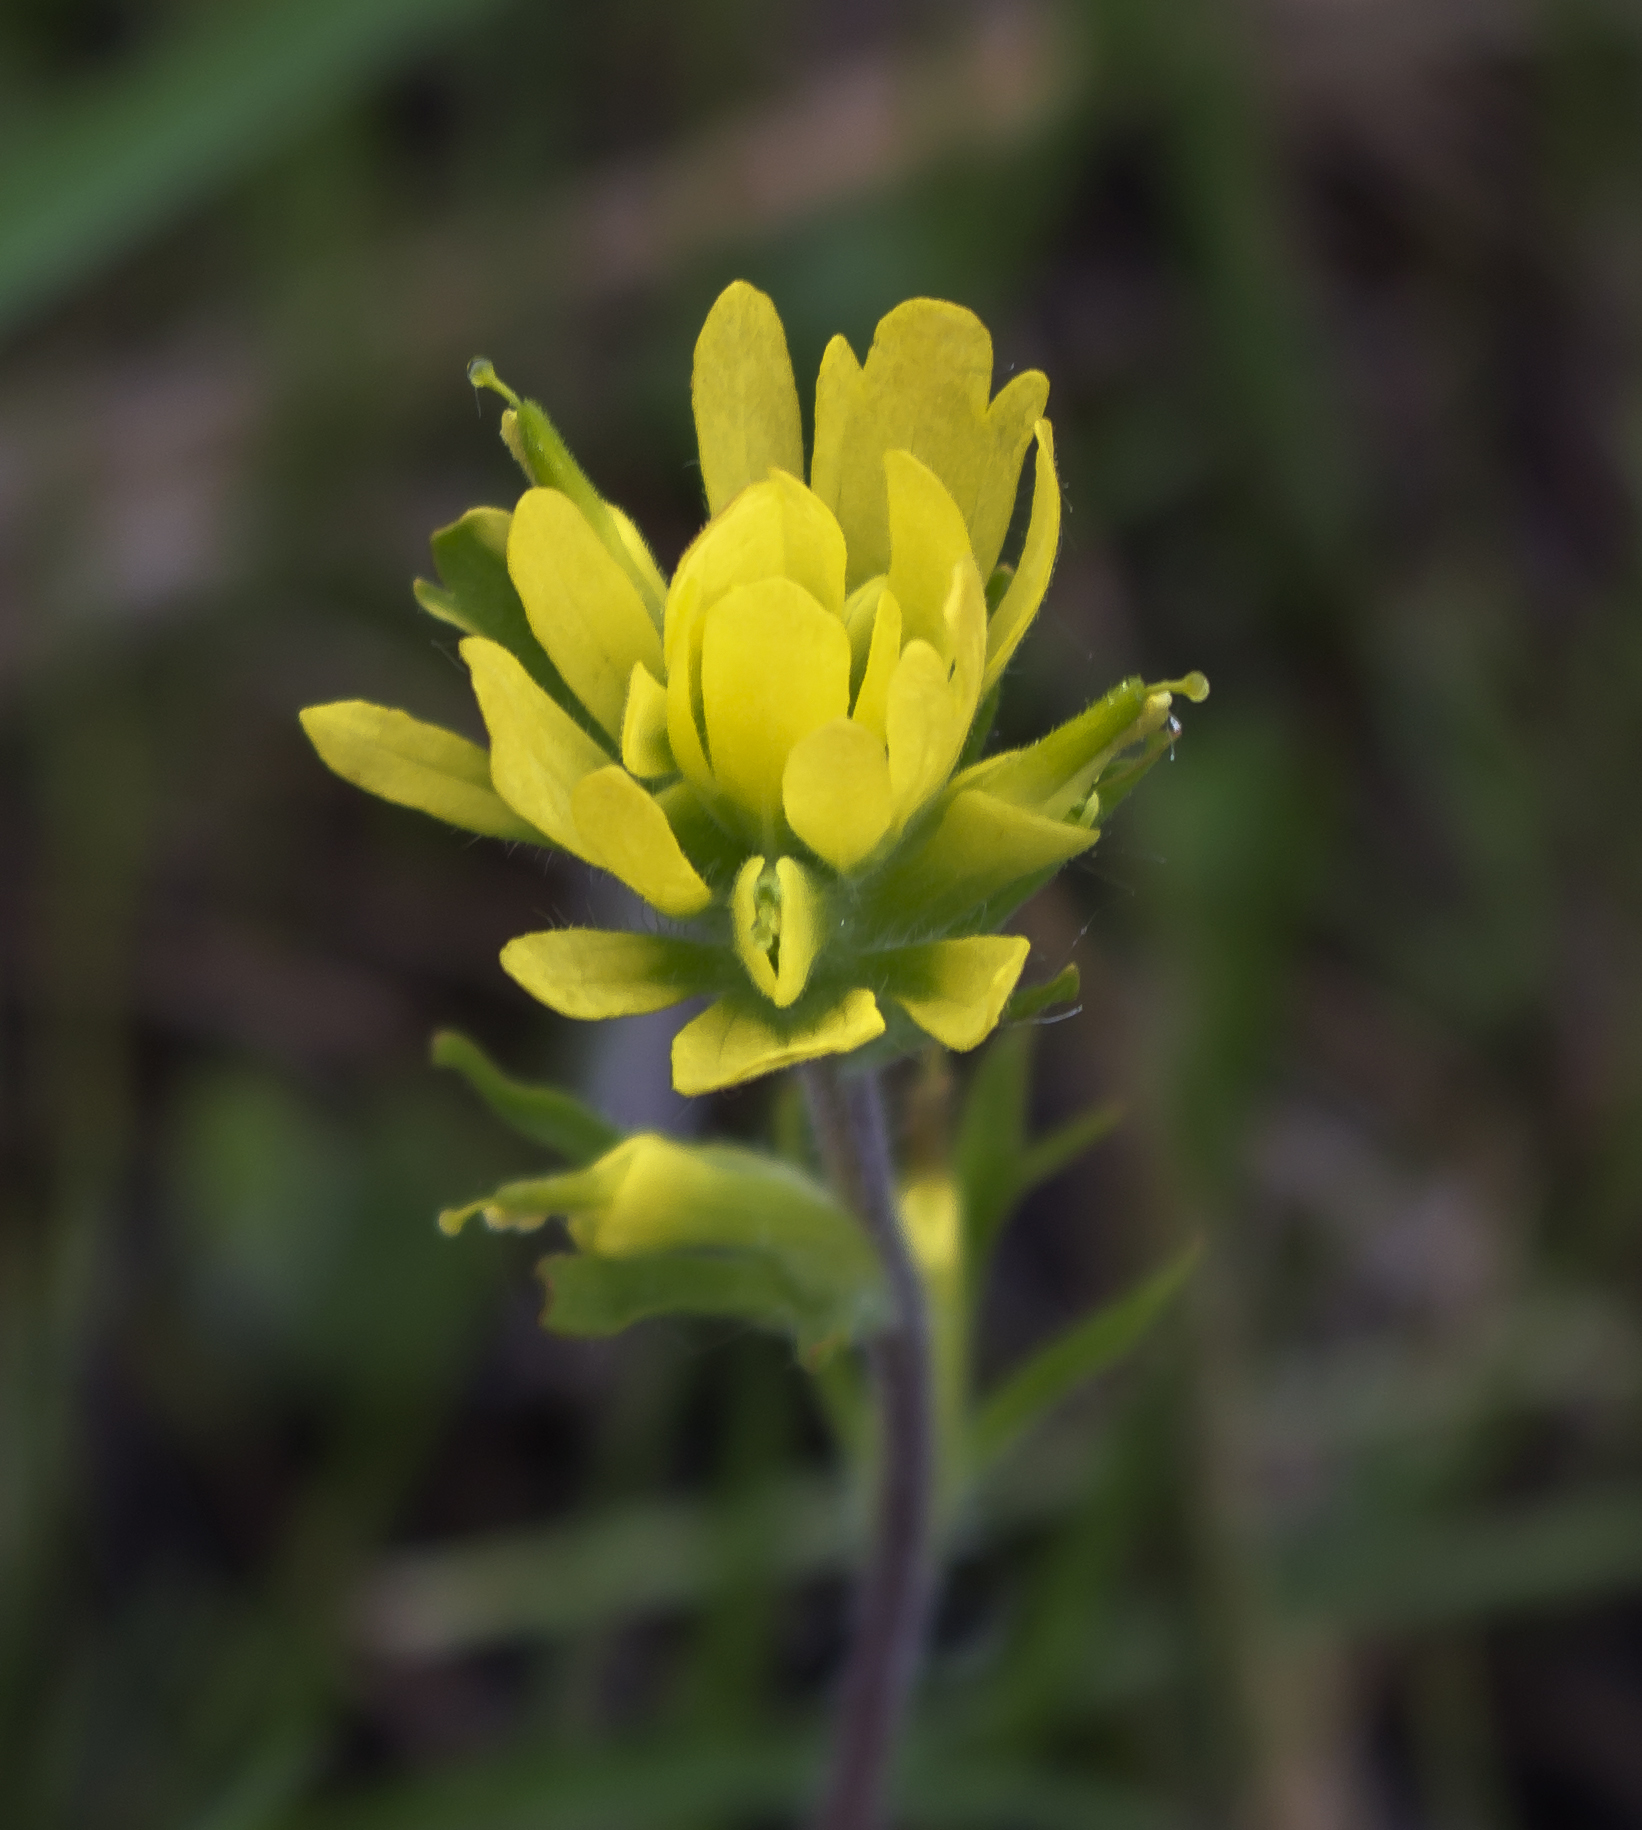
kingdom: Plantae
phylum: Tracheophyta
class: Magnoliopsida
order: Lamiales
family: Orobanchaceae
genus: Castilleja
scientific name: Castilleja coccinea
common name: Scarlet paintbrush
